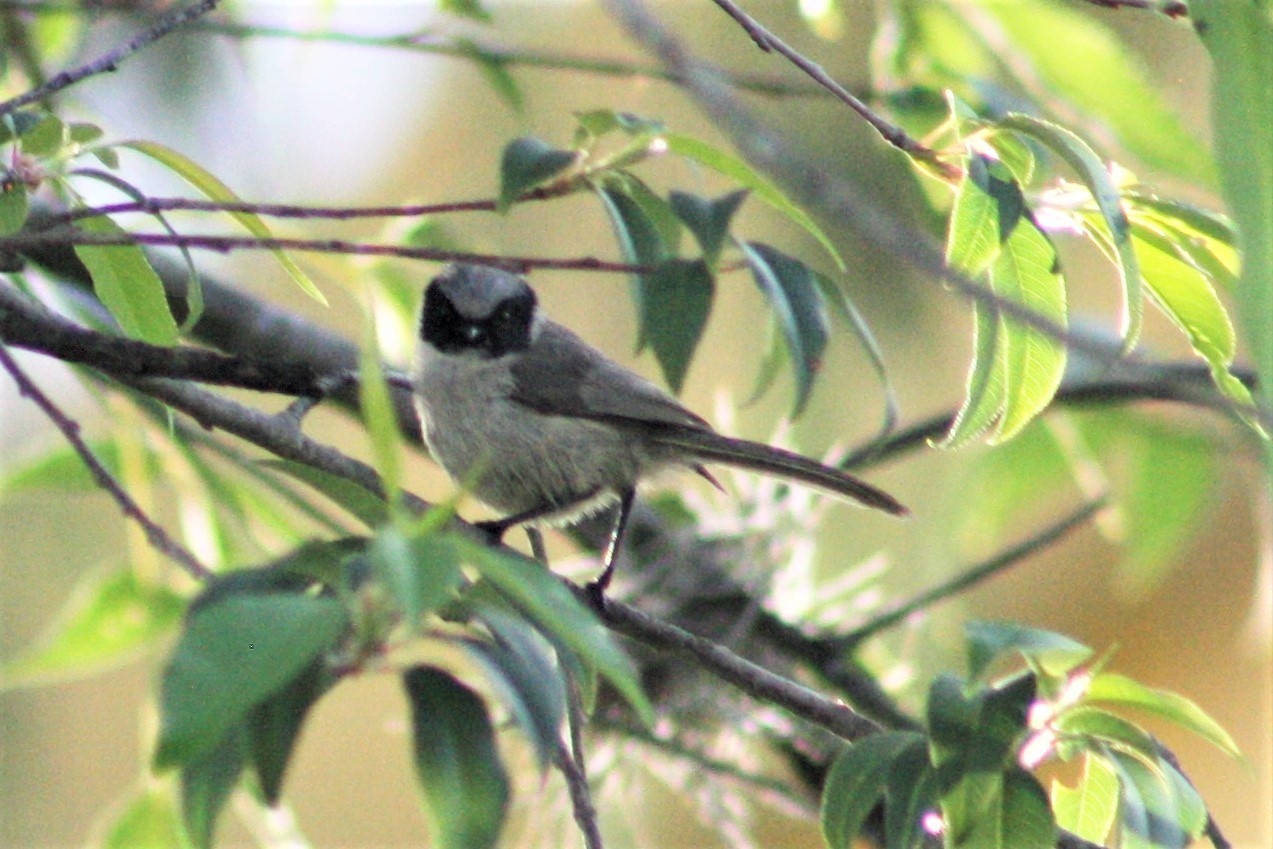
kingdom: Animalia
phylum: Chordata
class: Aves
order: Passeriformes
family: Aegithalidae
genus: Psaltriparus
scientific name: Psaltriparus minimus
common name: American bushtit
